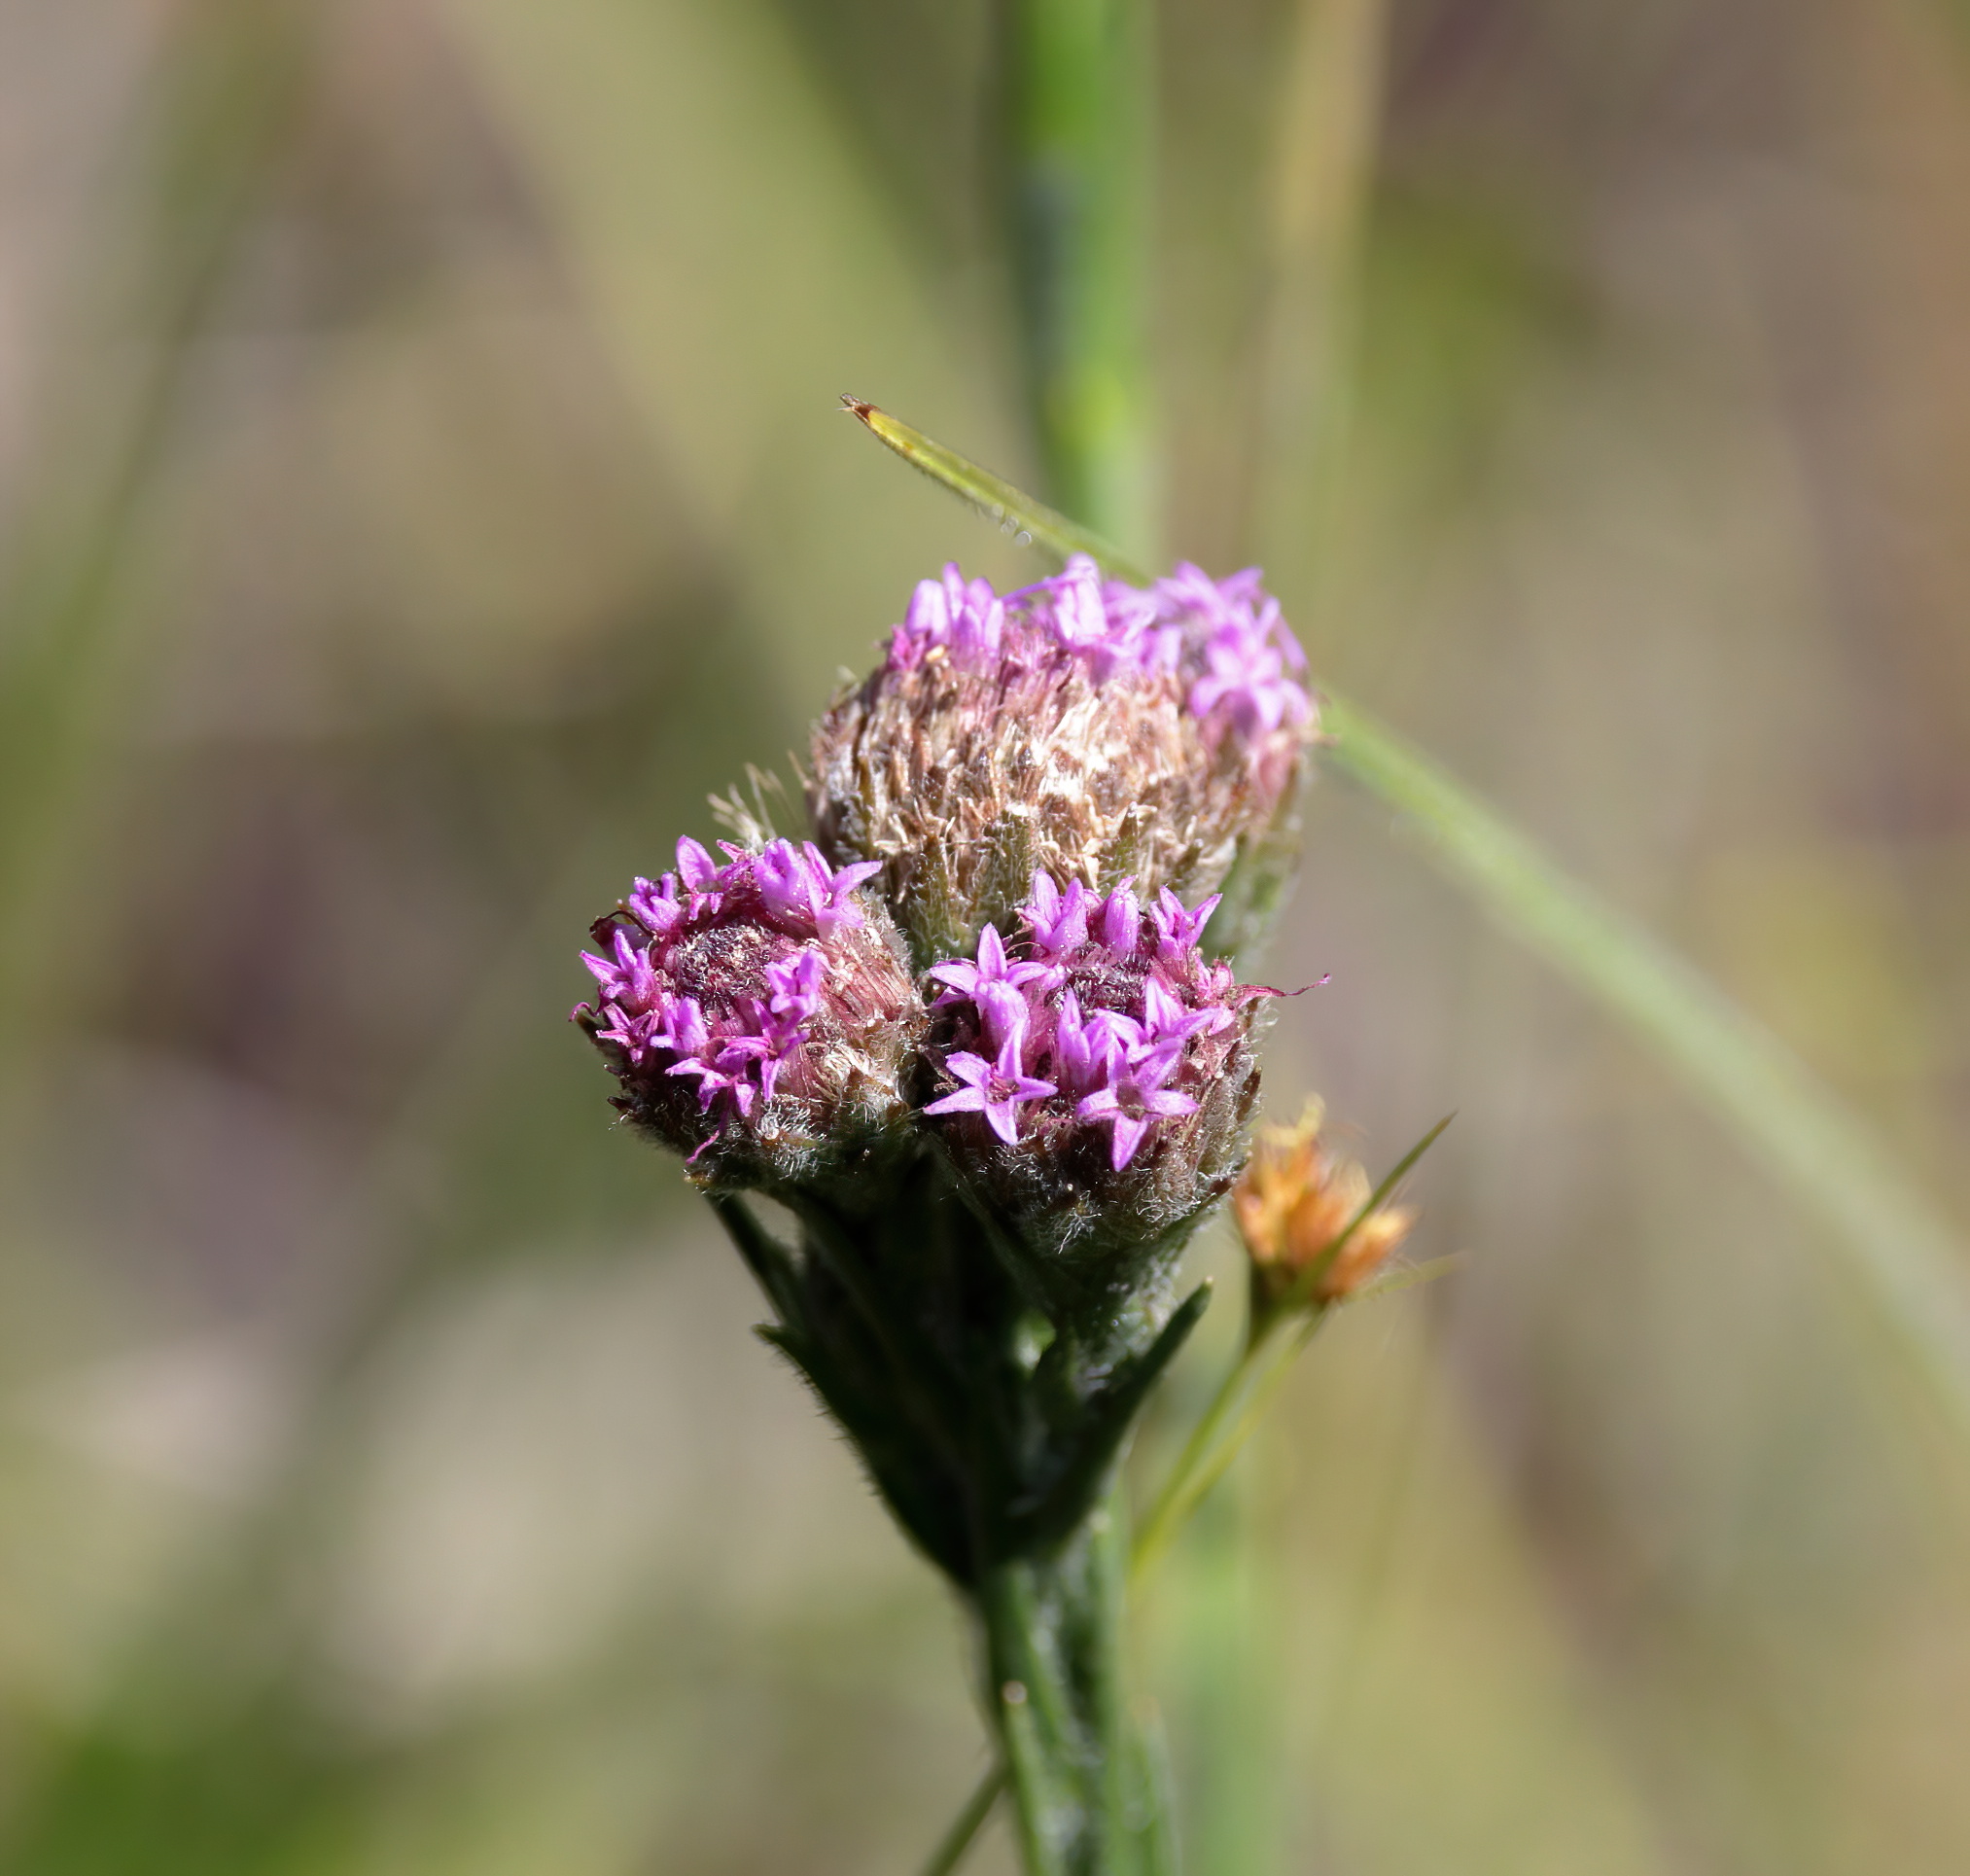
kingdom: Plantae
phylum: Tracheophyta
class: Magnoliopsida
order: Asterales
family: Asteraceae
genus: Carphephorus
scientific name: Carphephorus pseudoliatris
